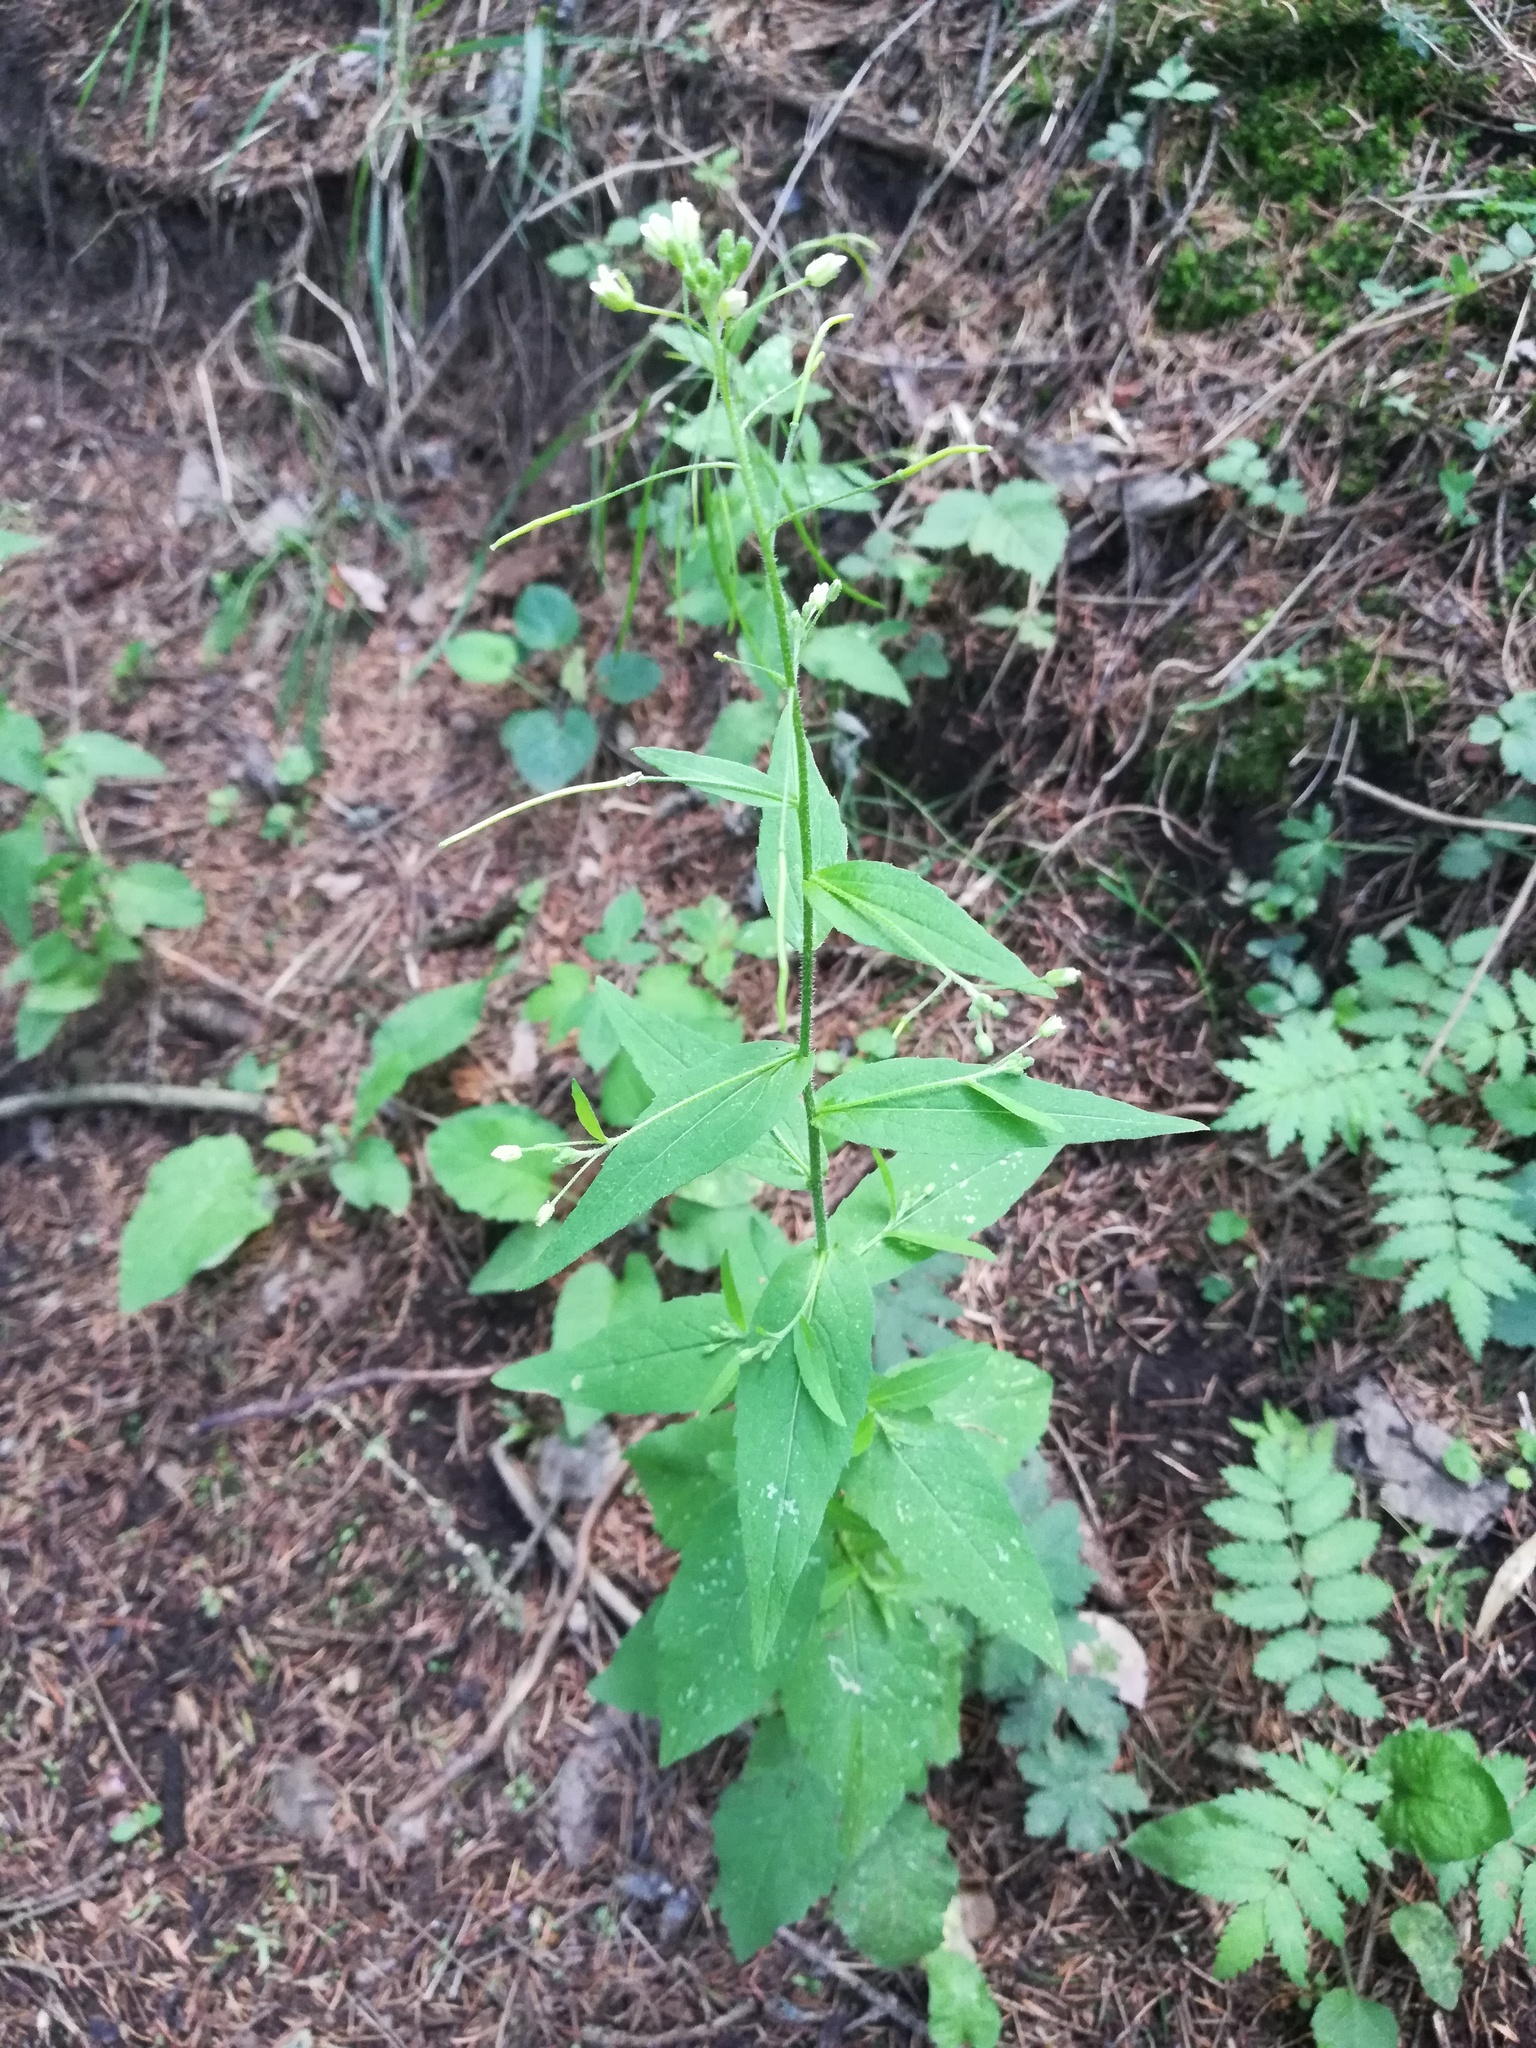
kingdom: Plantae
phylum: Tracheophyta
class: Magnoliopsida
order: Brassicales
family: Brassicaceae
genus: Catolobus
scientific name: Catolobus pendulus
